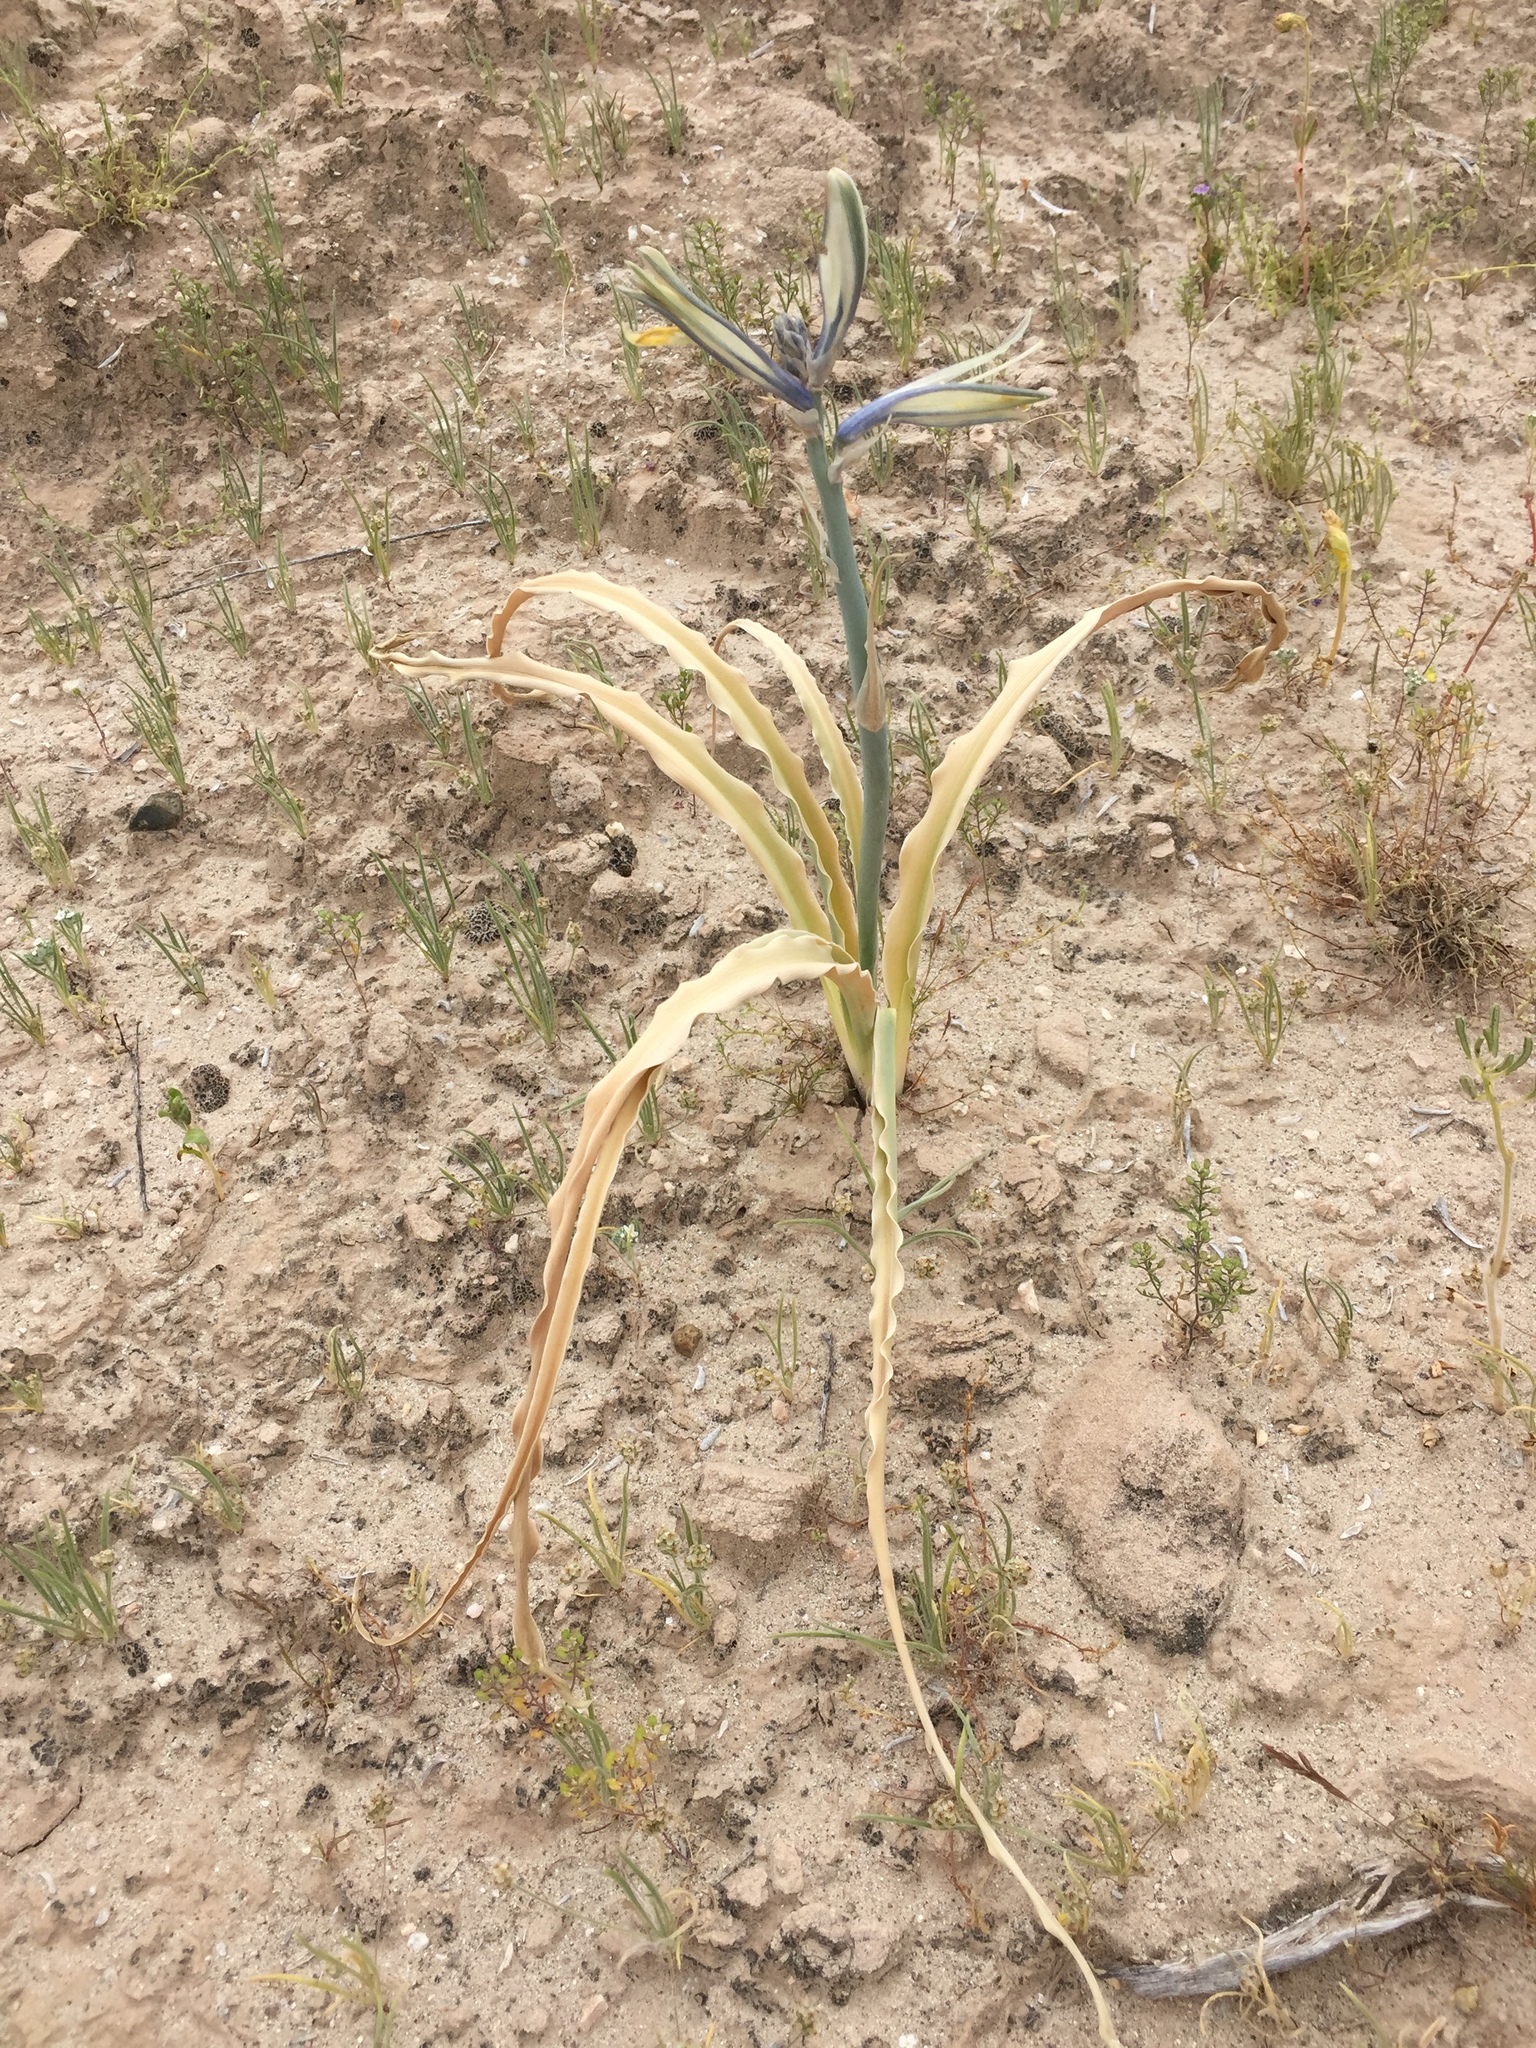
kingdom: Plantae
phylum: Tracheophyta
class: Liliopsida
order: Asparagales
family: Asparagaceae
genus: Hesperocallis
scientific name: Hesperocallis undulata
